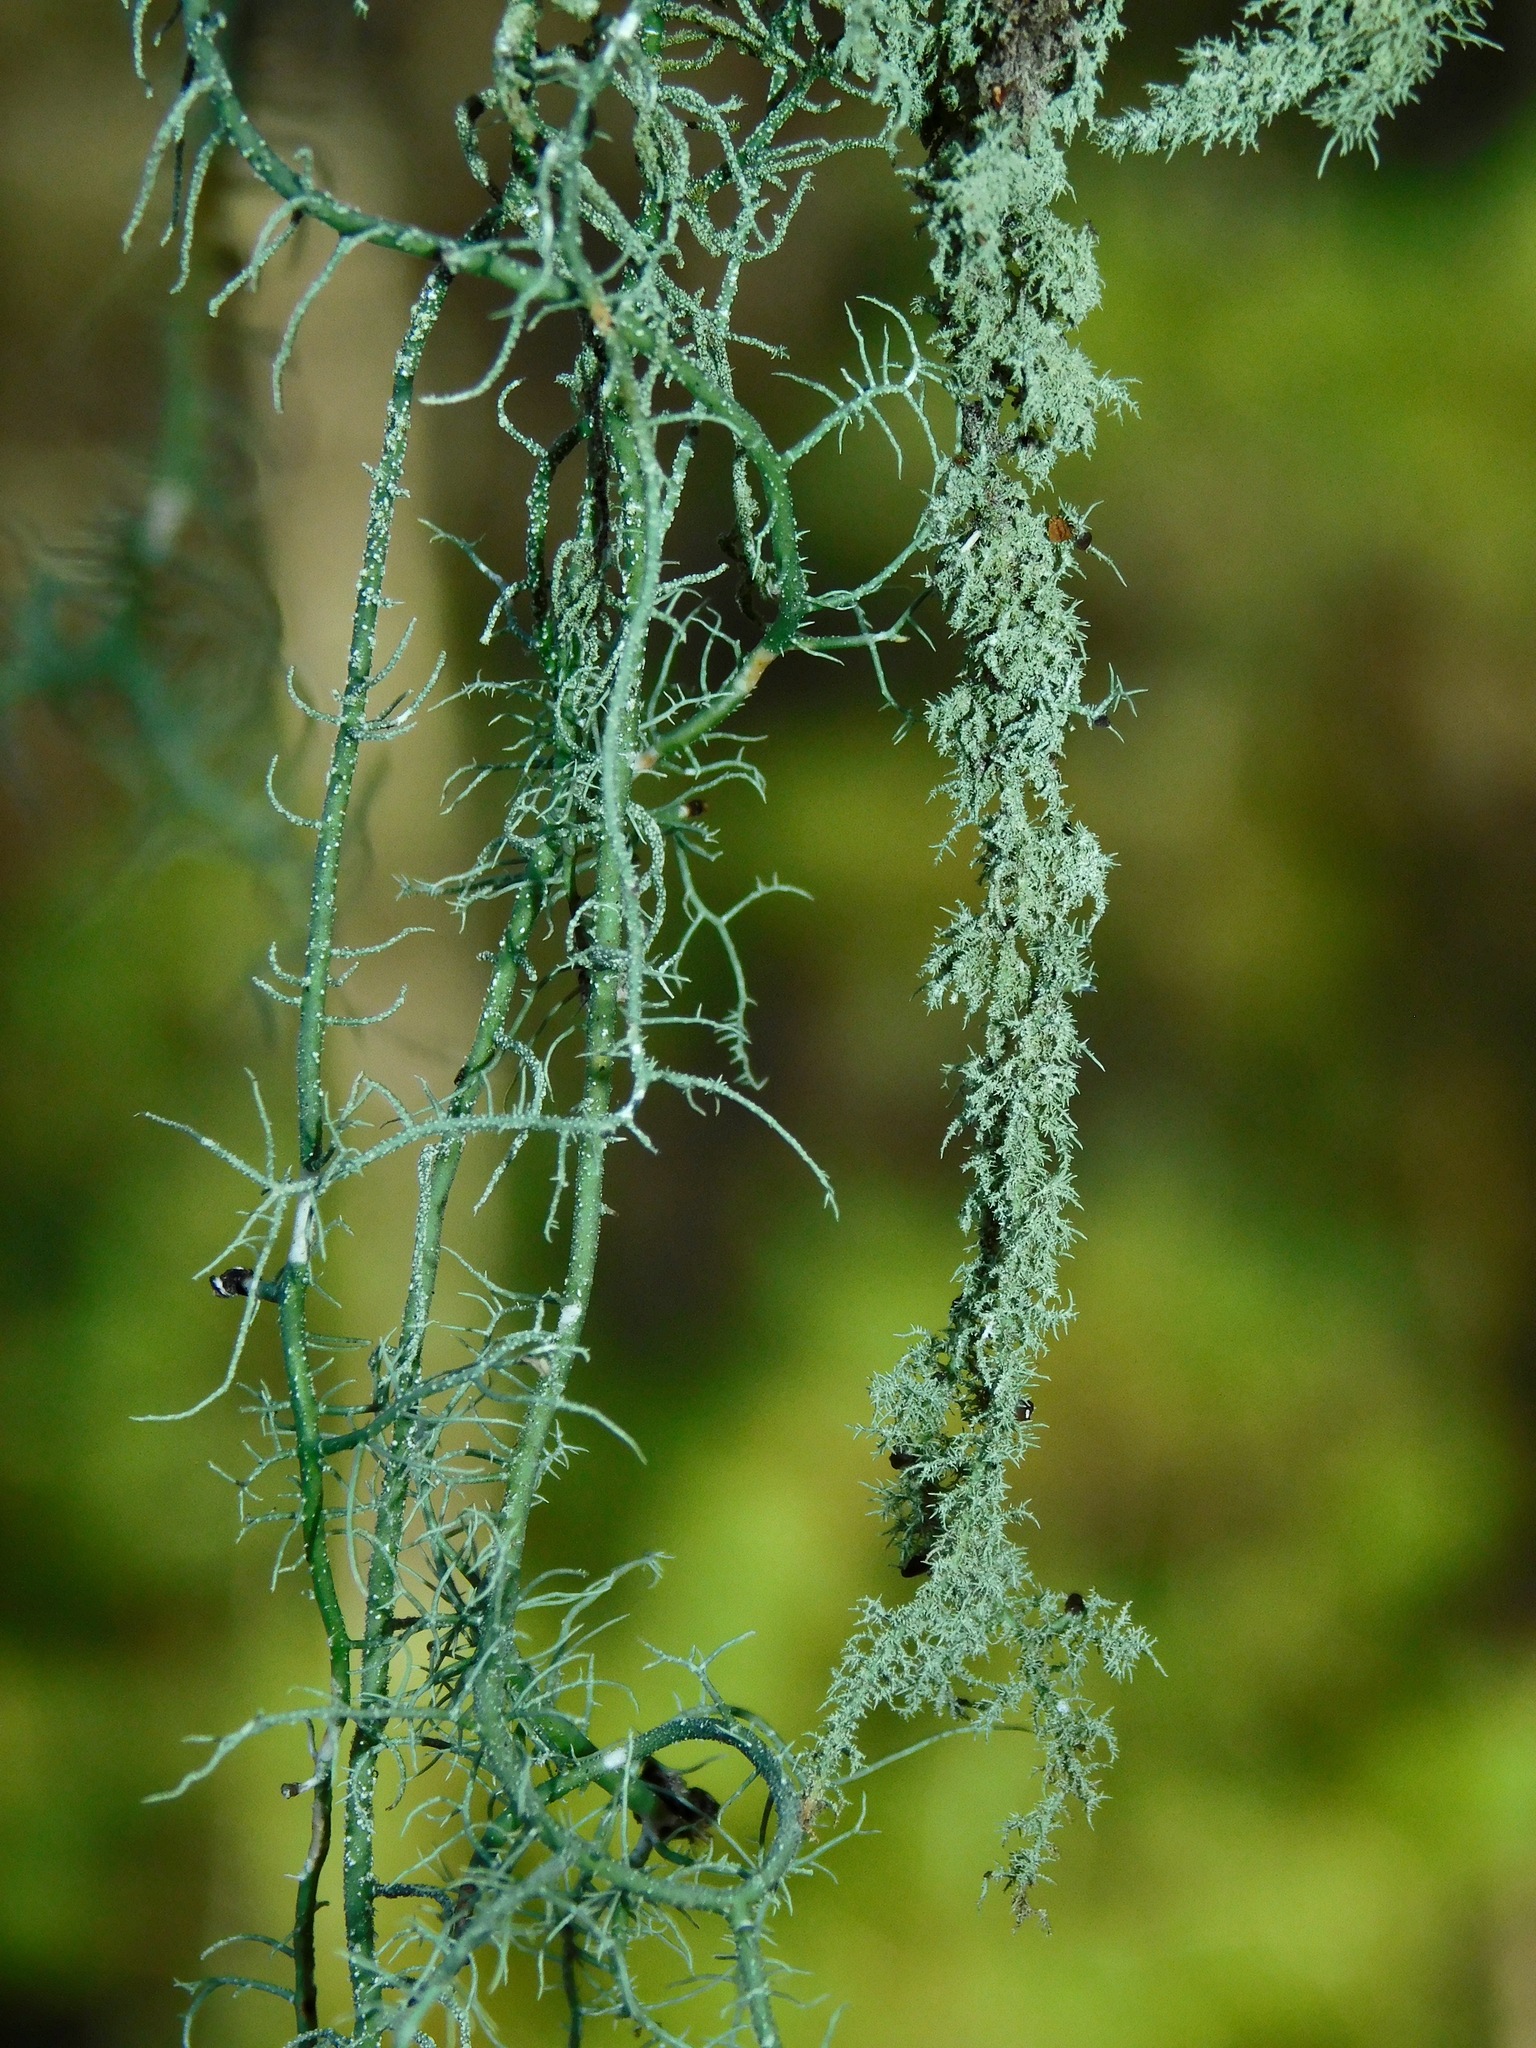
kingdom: Fungi
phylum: Ascomycota
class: Lecanoromycetes
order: Lecanorales
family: Parmeliaceae
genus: Usnea
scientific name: Usnea mutabilis
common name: Bloody beard
